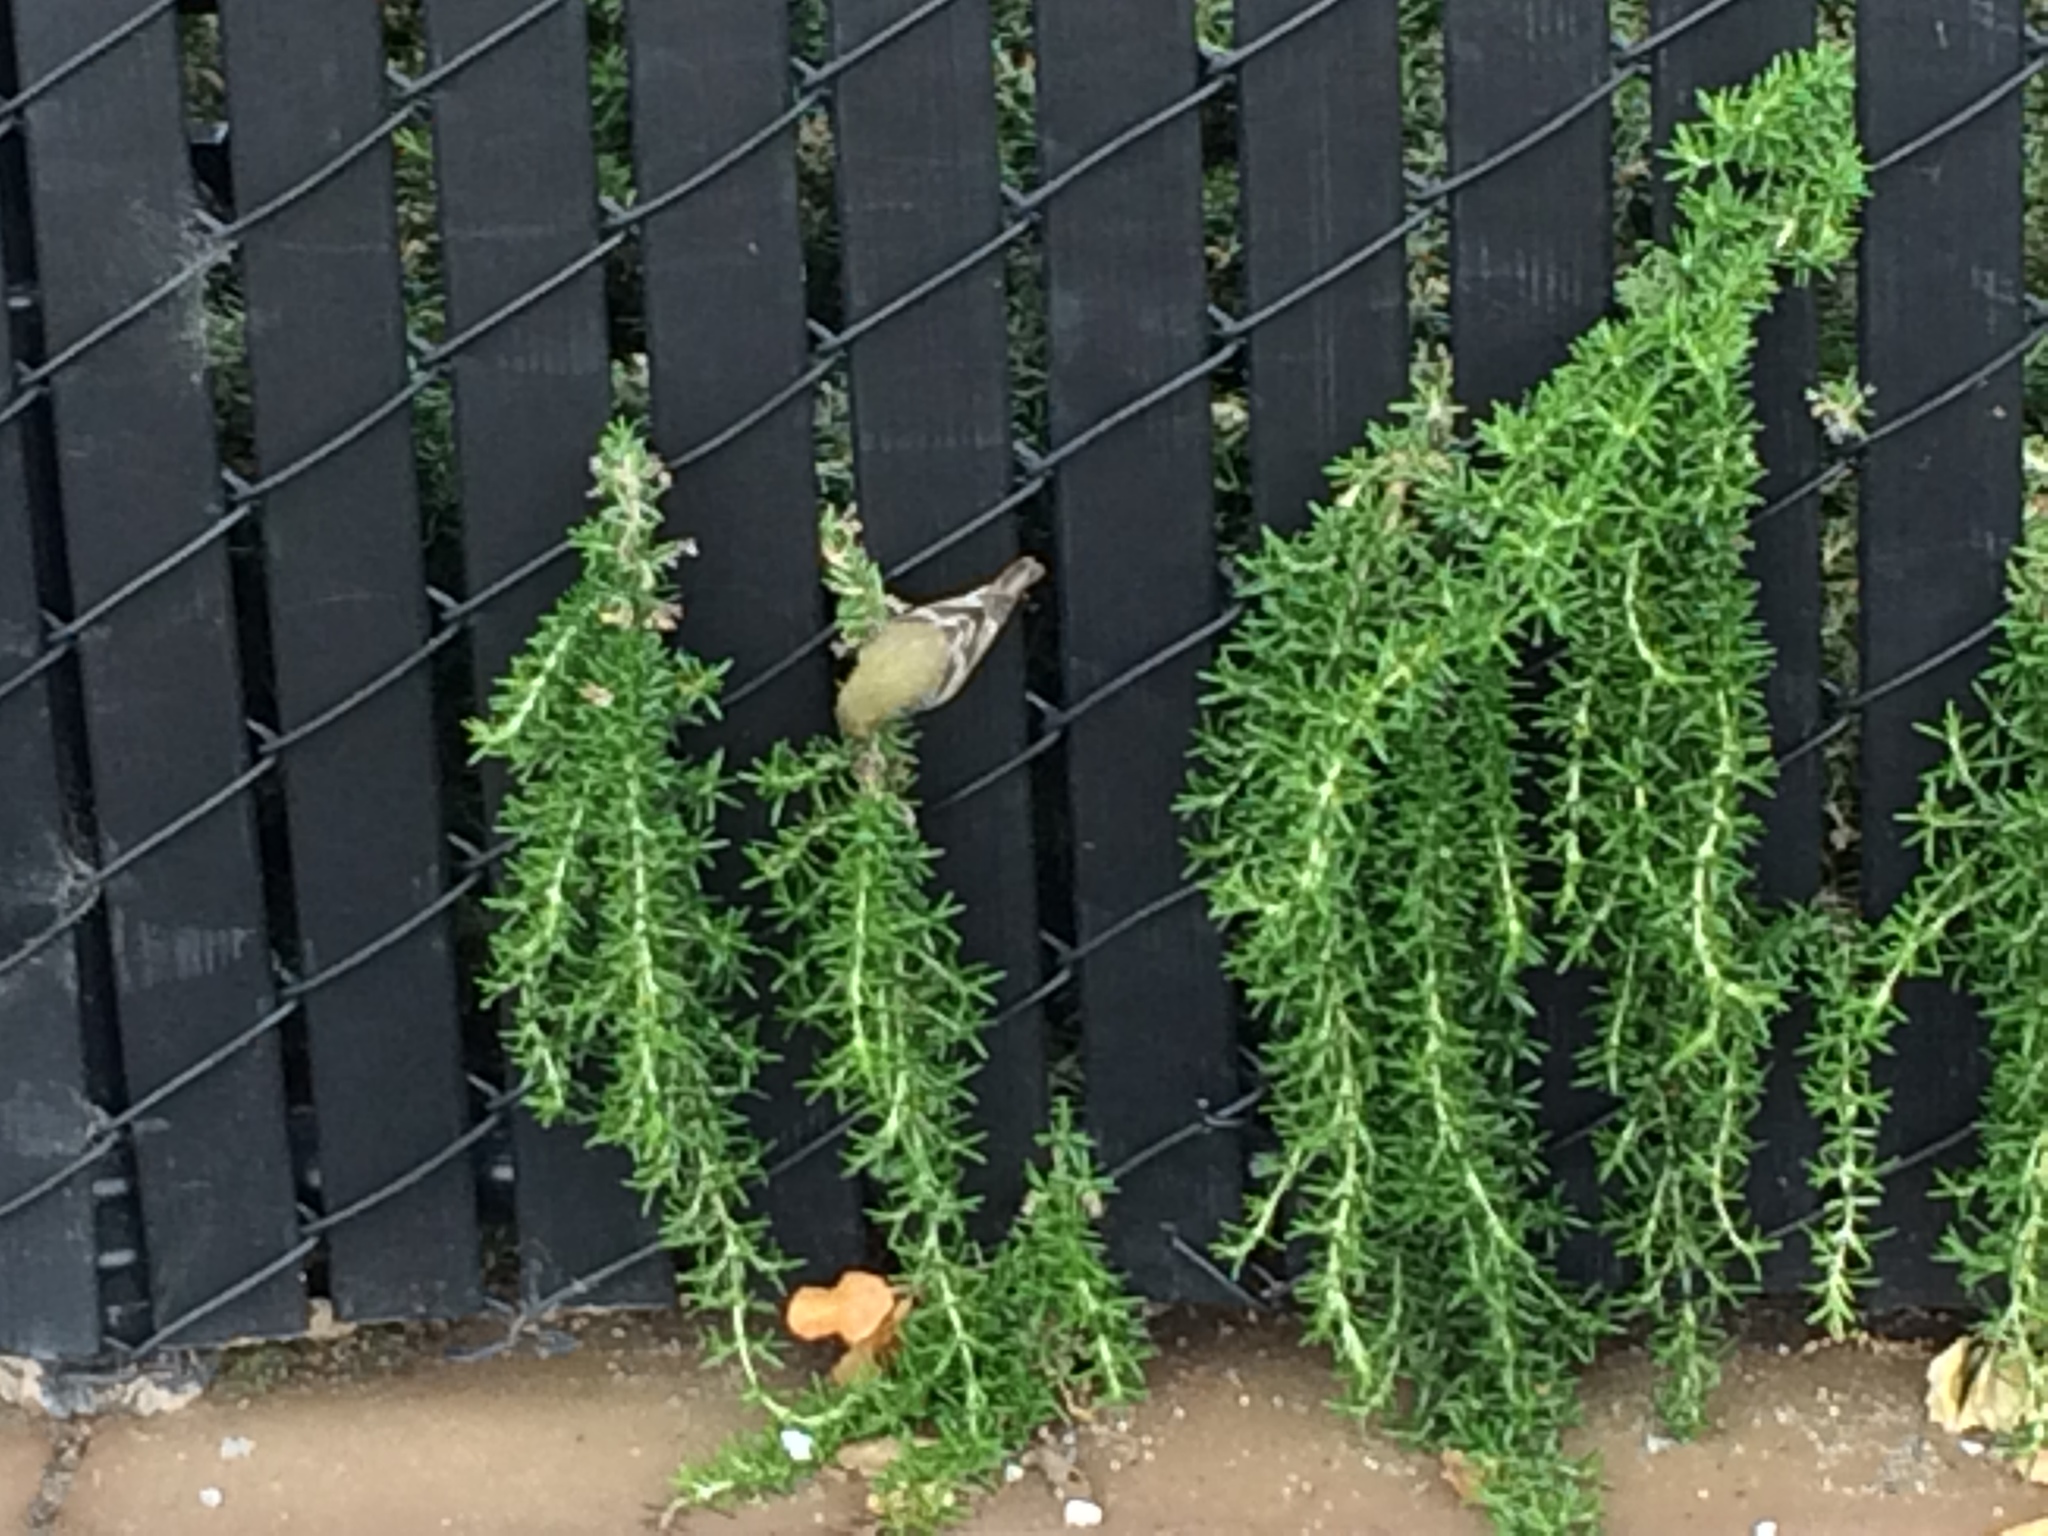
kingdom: Animalia
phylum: Chordata
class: Aves
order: Passeriformes
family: Fringillidae
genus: Spinus
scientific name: Spinus psaltria
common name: Lesser goldfinch
